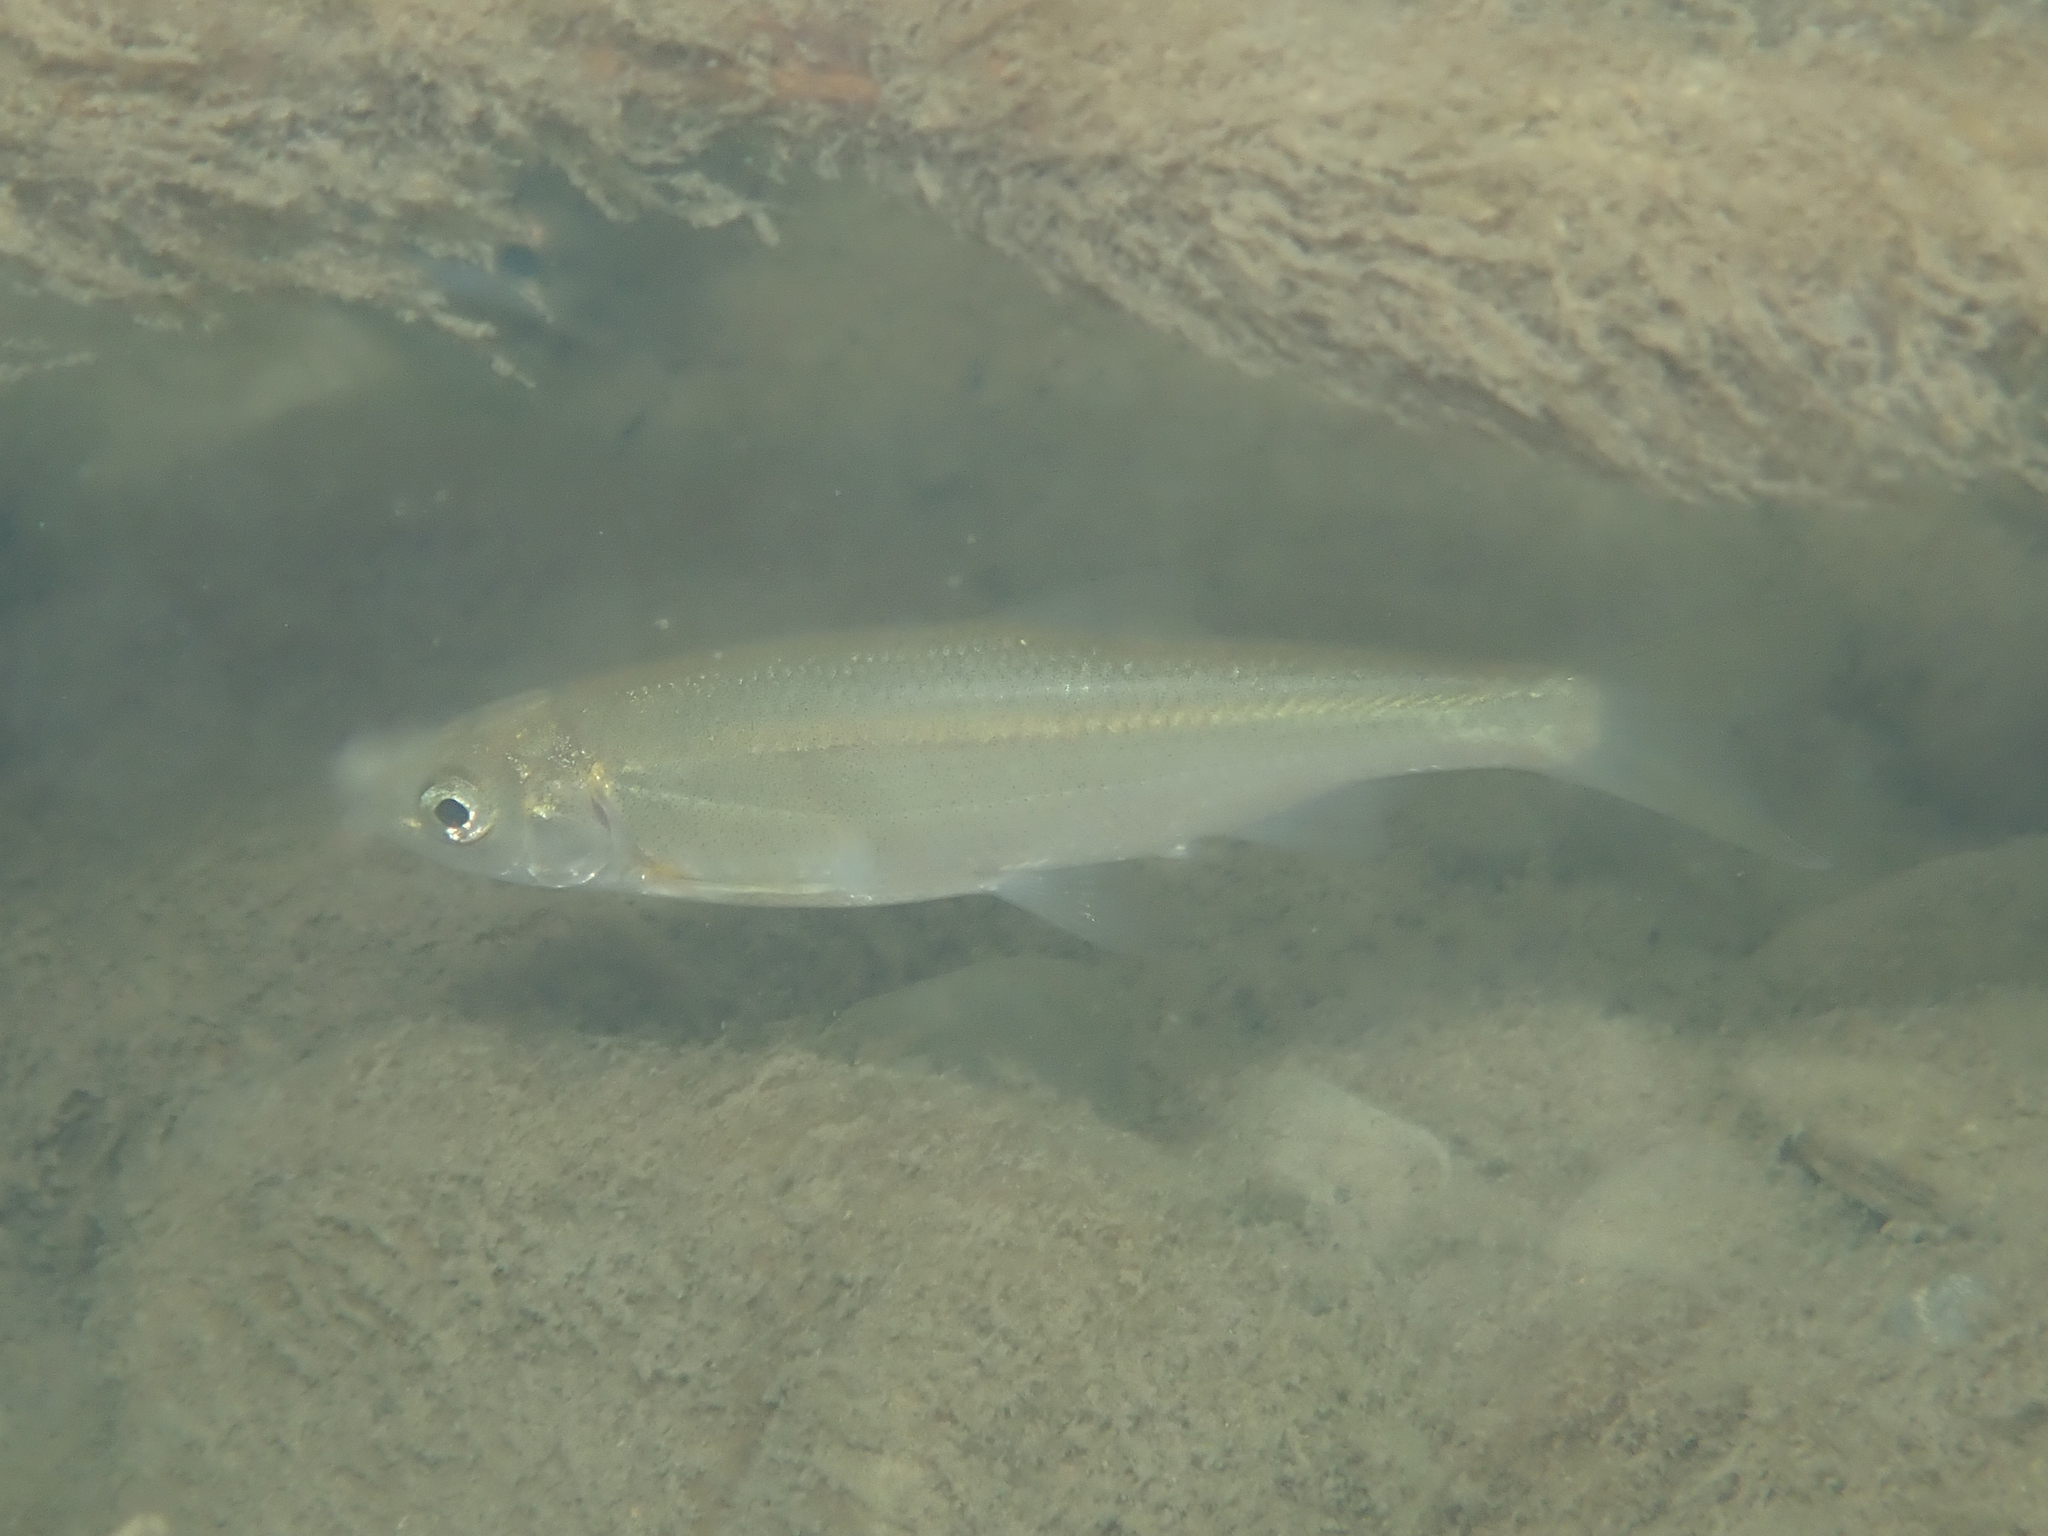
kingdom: Animalia
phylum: Chordata
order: Cypriniformes
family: Cyprinidae
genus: Parachondrostoma
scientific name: Parachondrostoma toxostoma
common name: Toxostome
